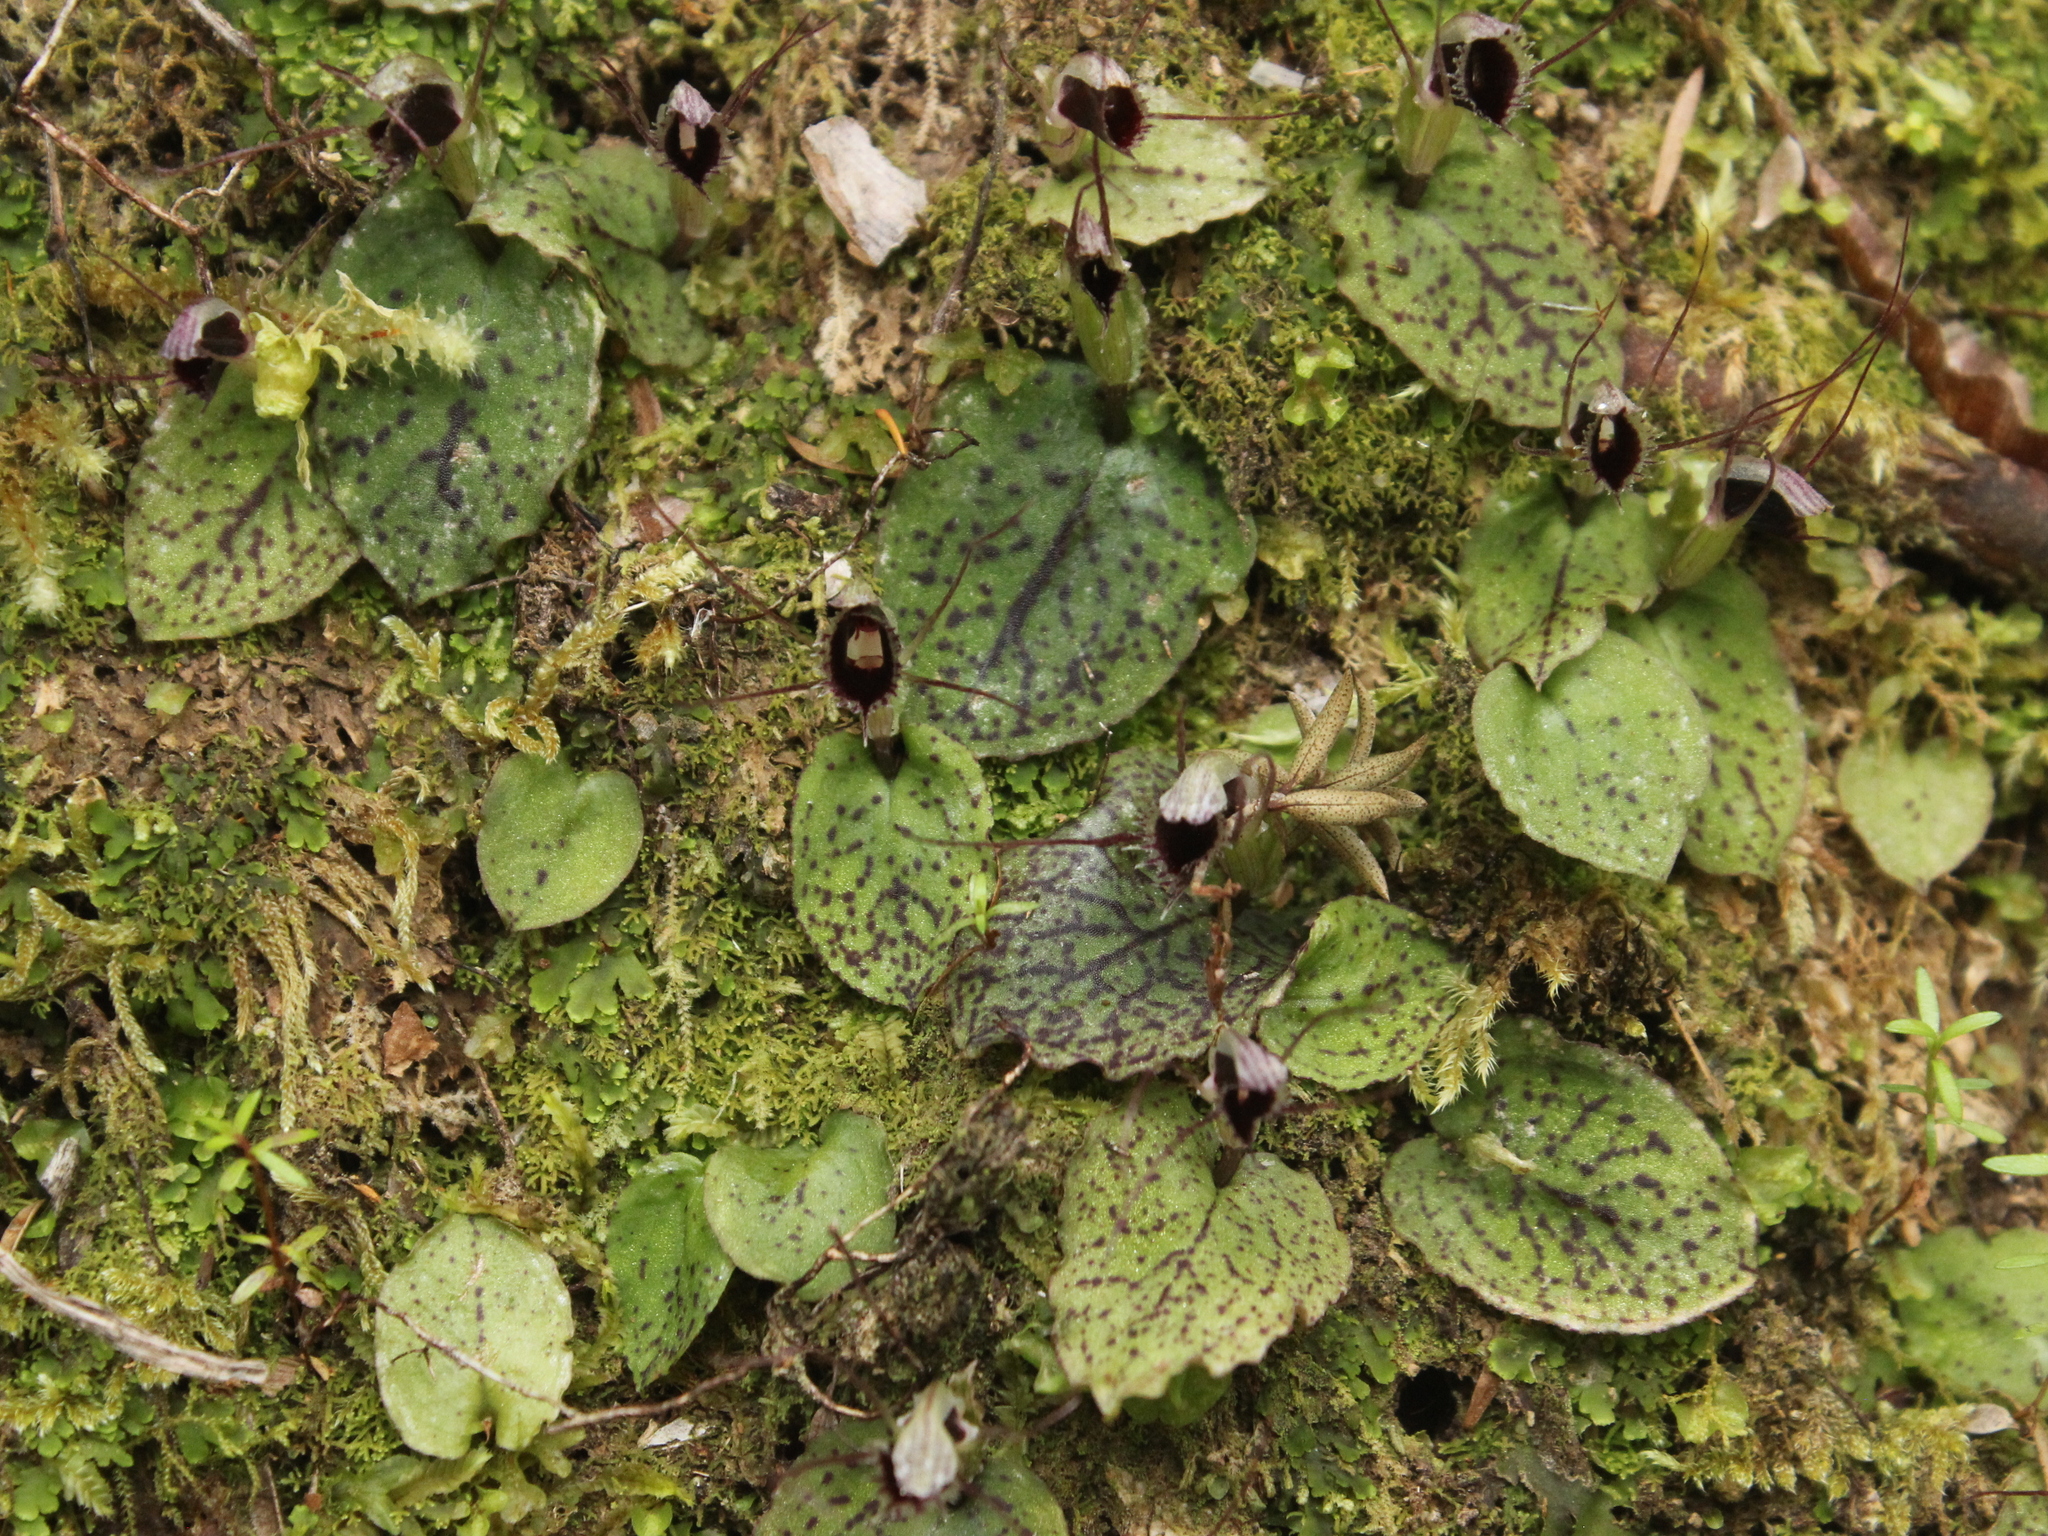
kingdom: Plantae
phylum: Tracheophyta
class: Liliopsida
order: Asparagales
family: Orchidaceae
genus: Corybas
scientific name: Corybas oblongus
